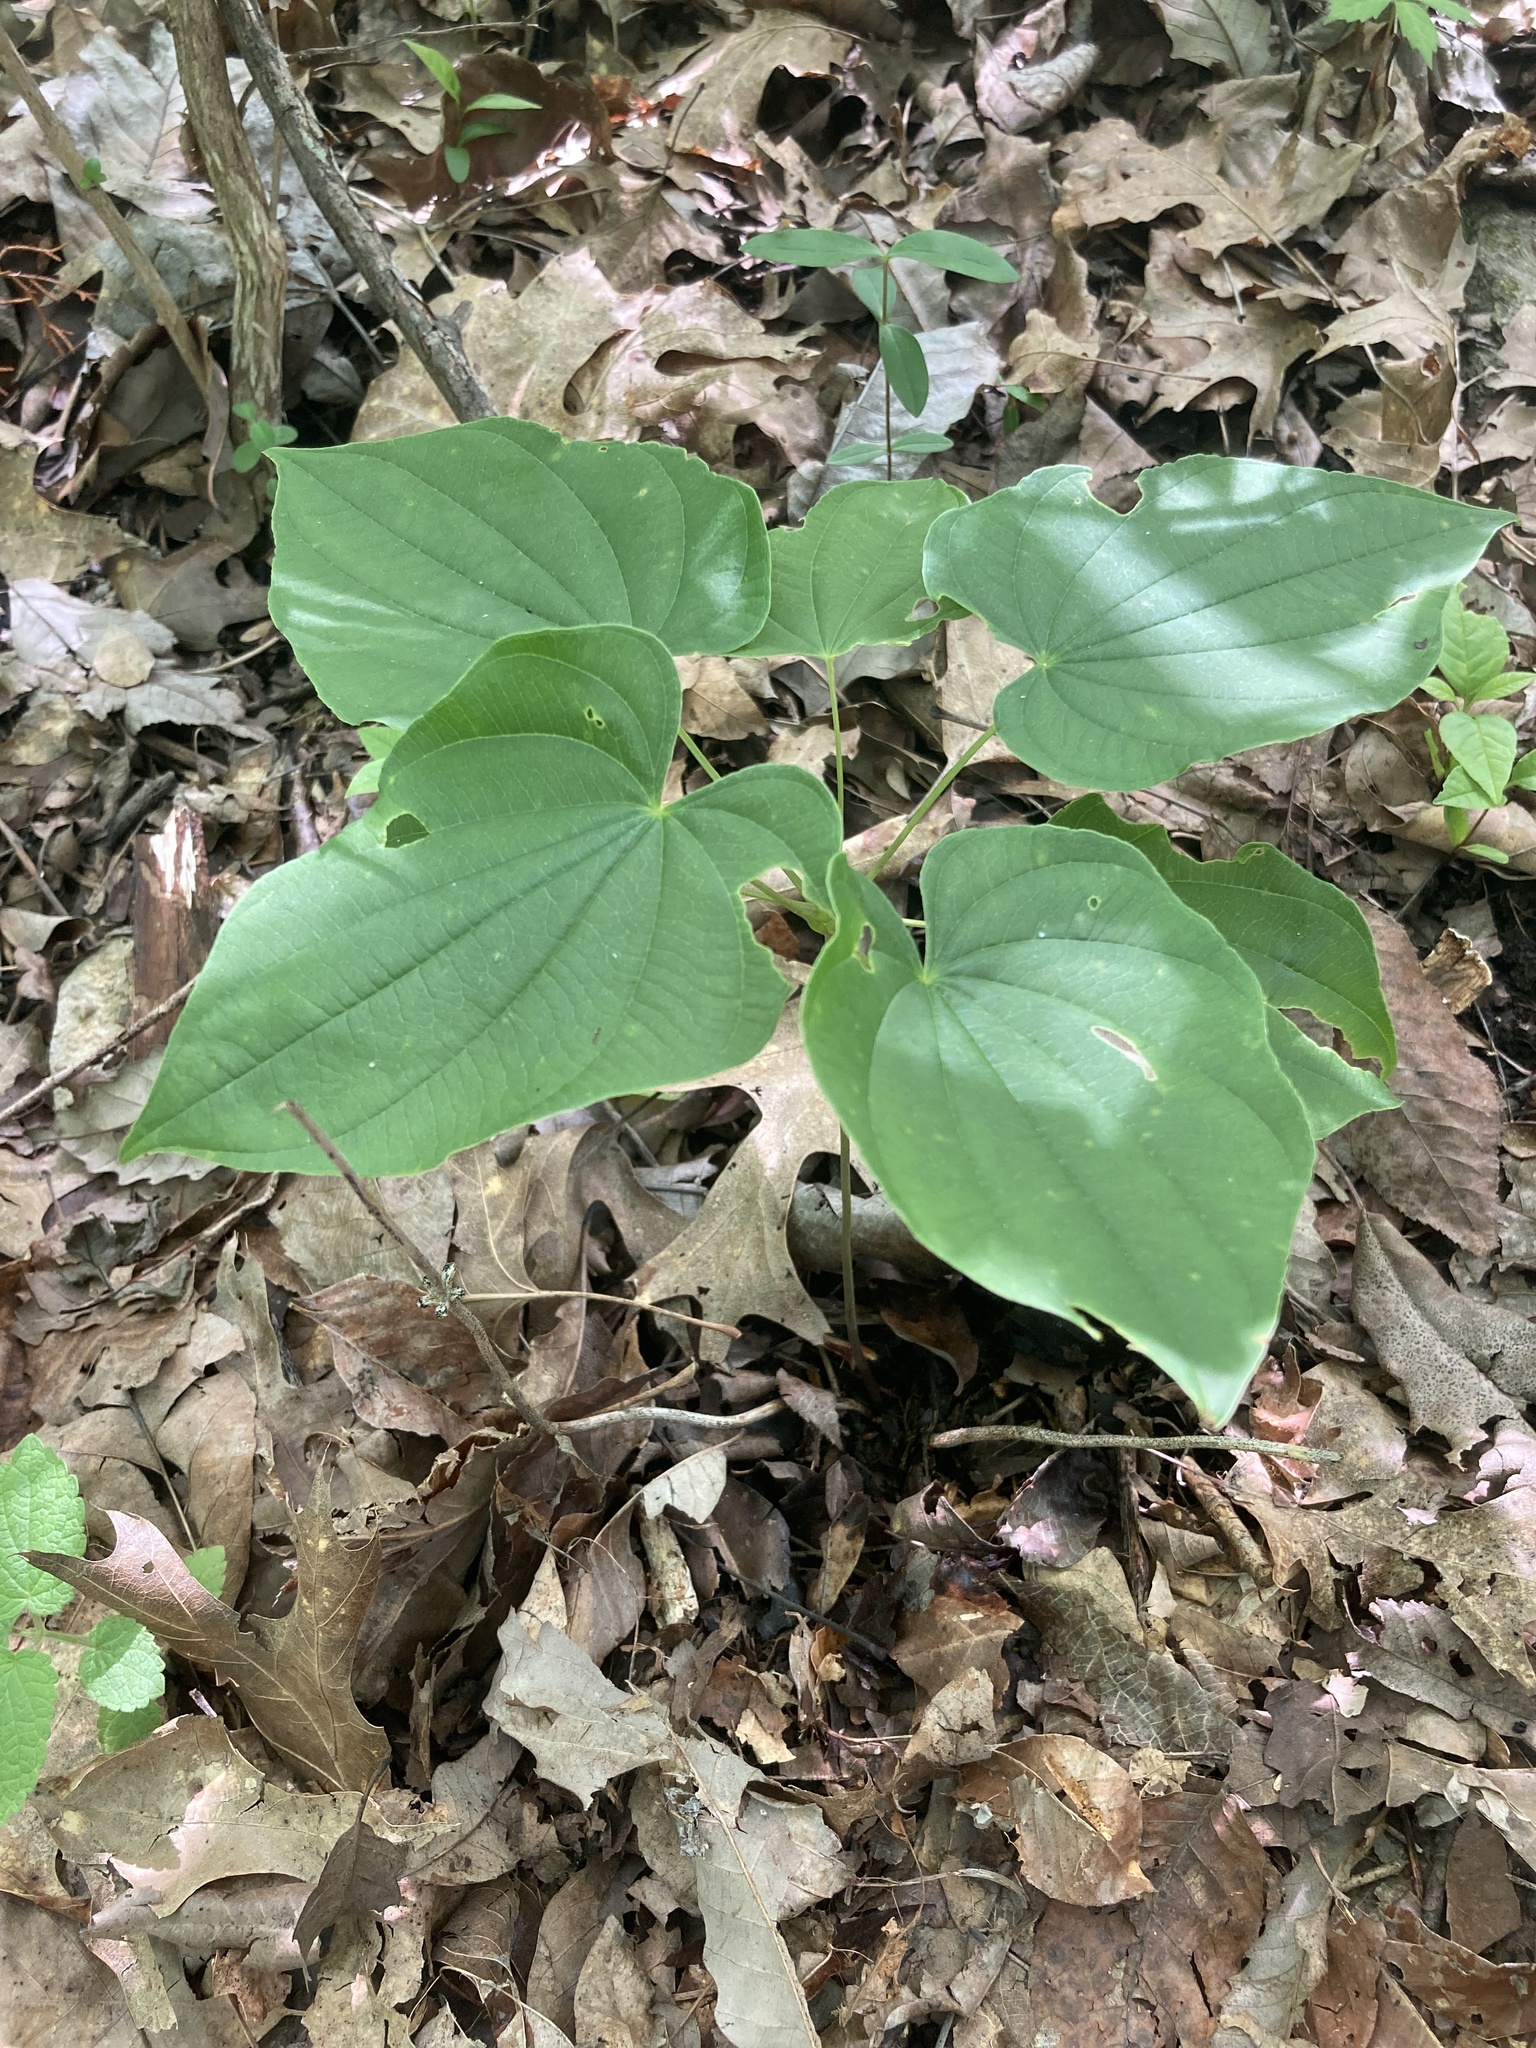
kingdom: Plantae
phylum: Tracheophyta
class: Liliopsida
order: Dioscoreales
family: Dioscoreaceae
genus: Dioscorea
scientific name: Dioscorea villosa
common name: Wild yam
